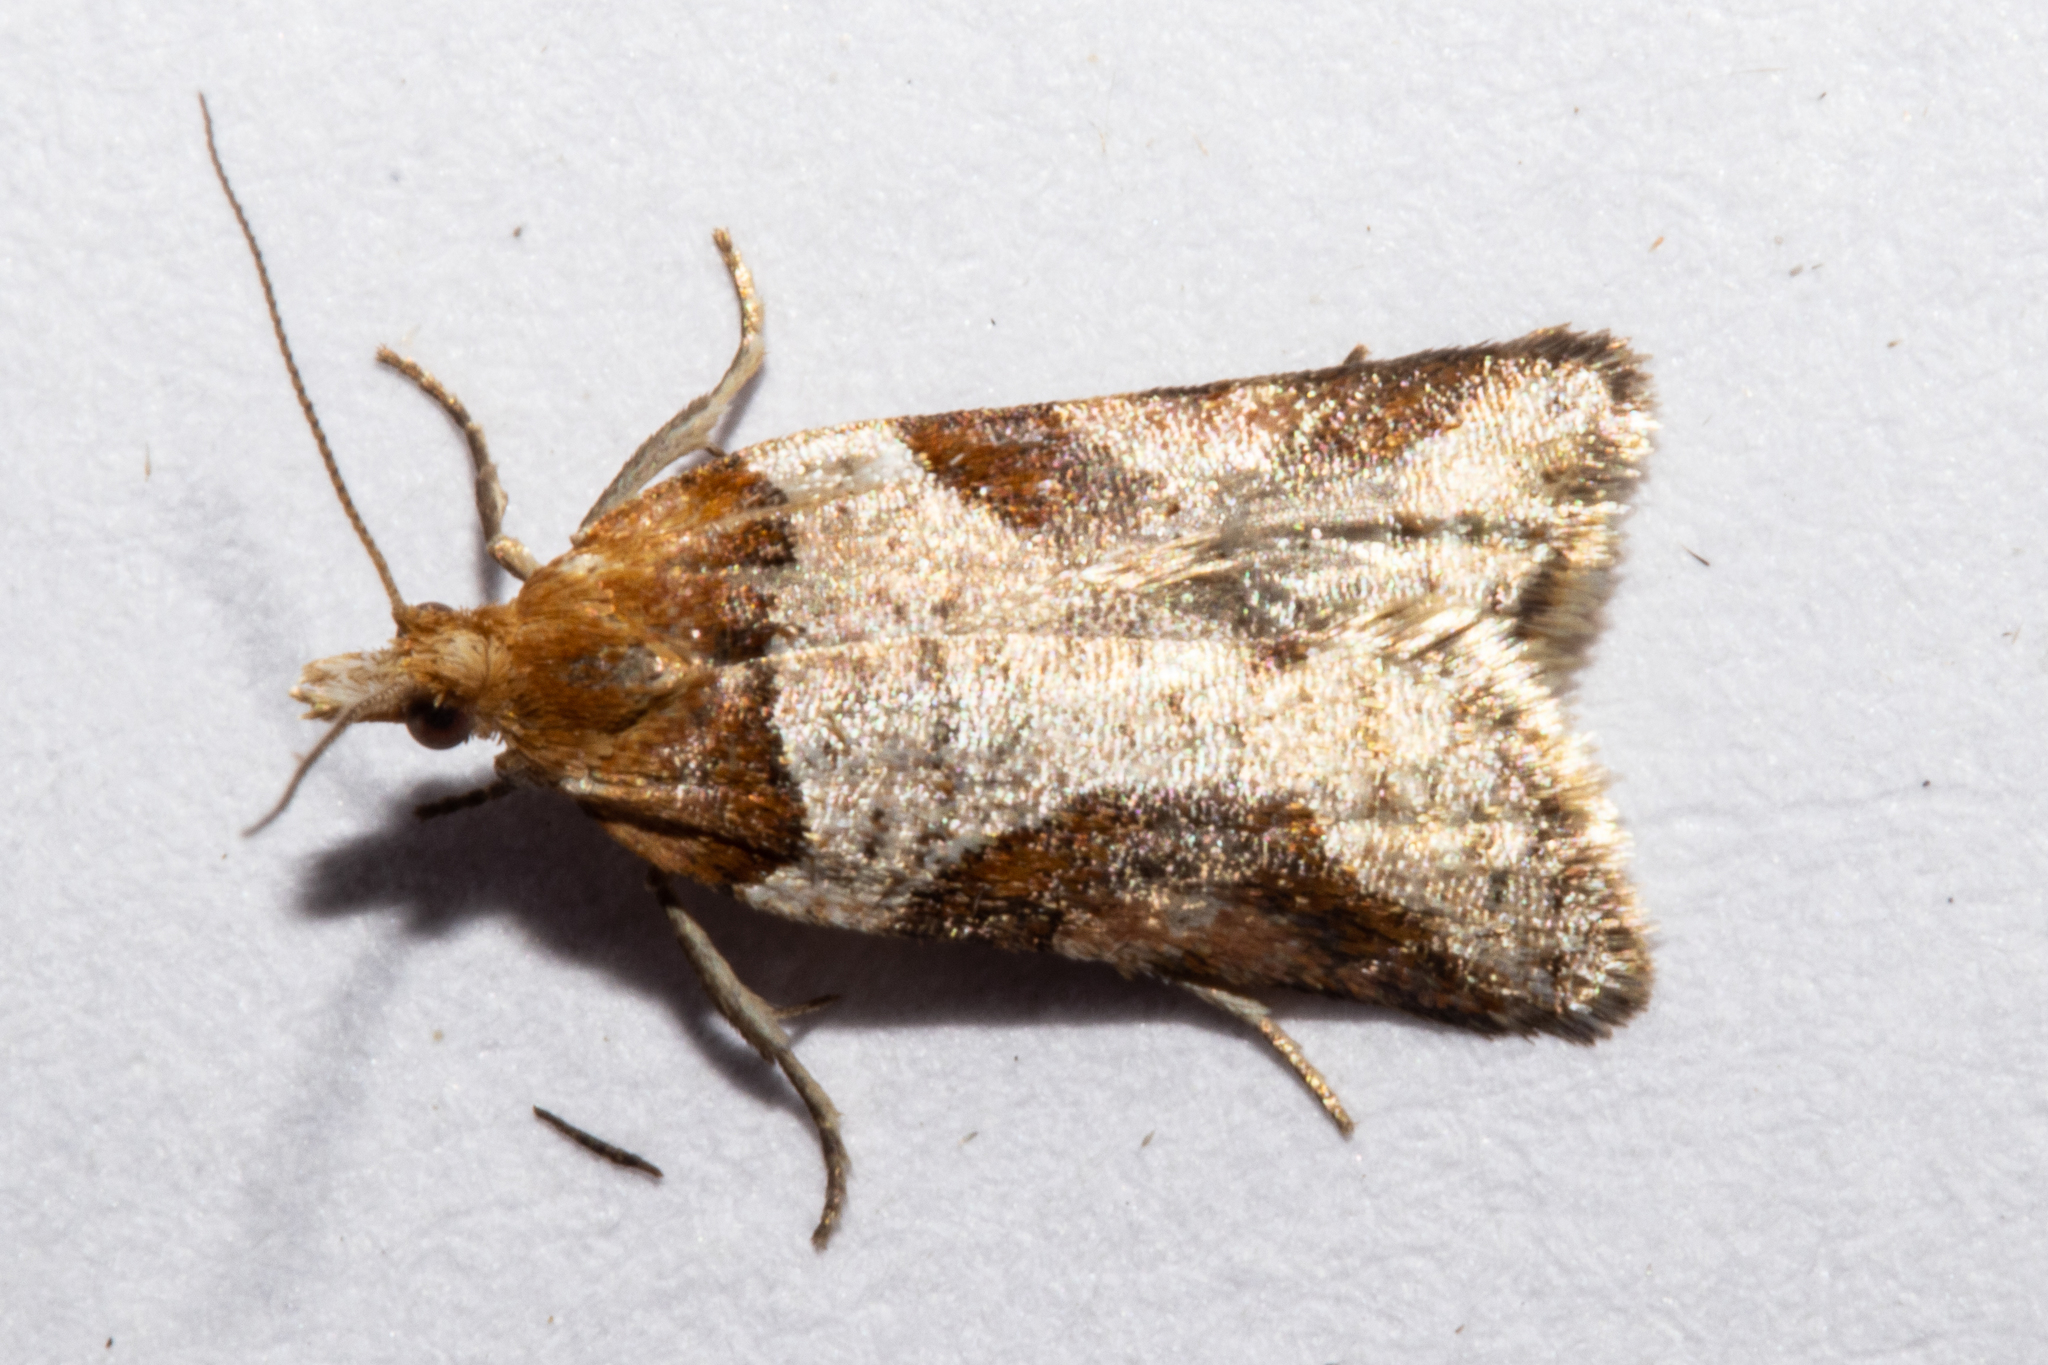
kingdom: Animalia
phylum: Arthropoda
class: Insecta
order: Lepidoptera
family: Tortricidae
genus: Epichorista
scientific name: Epichorista
